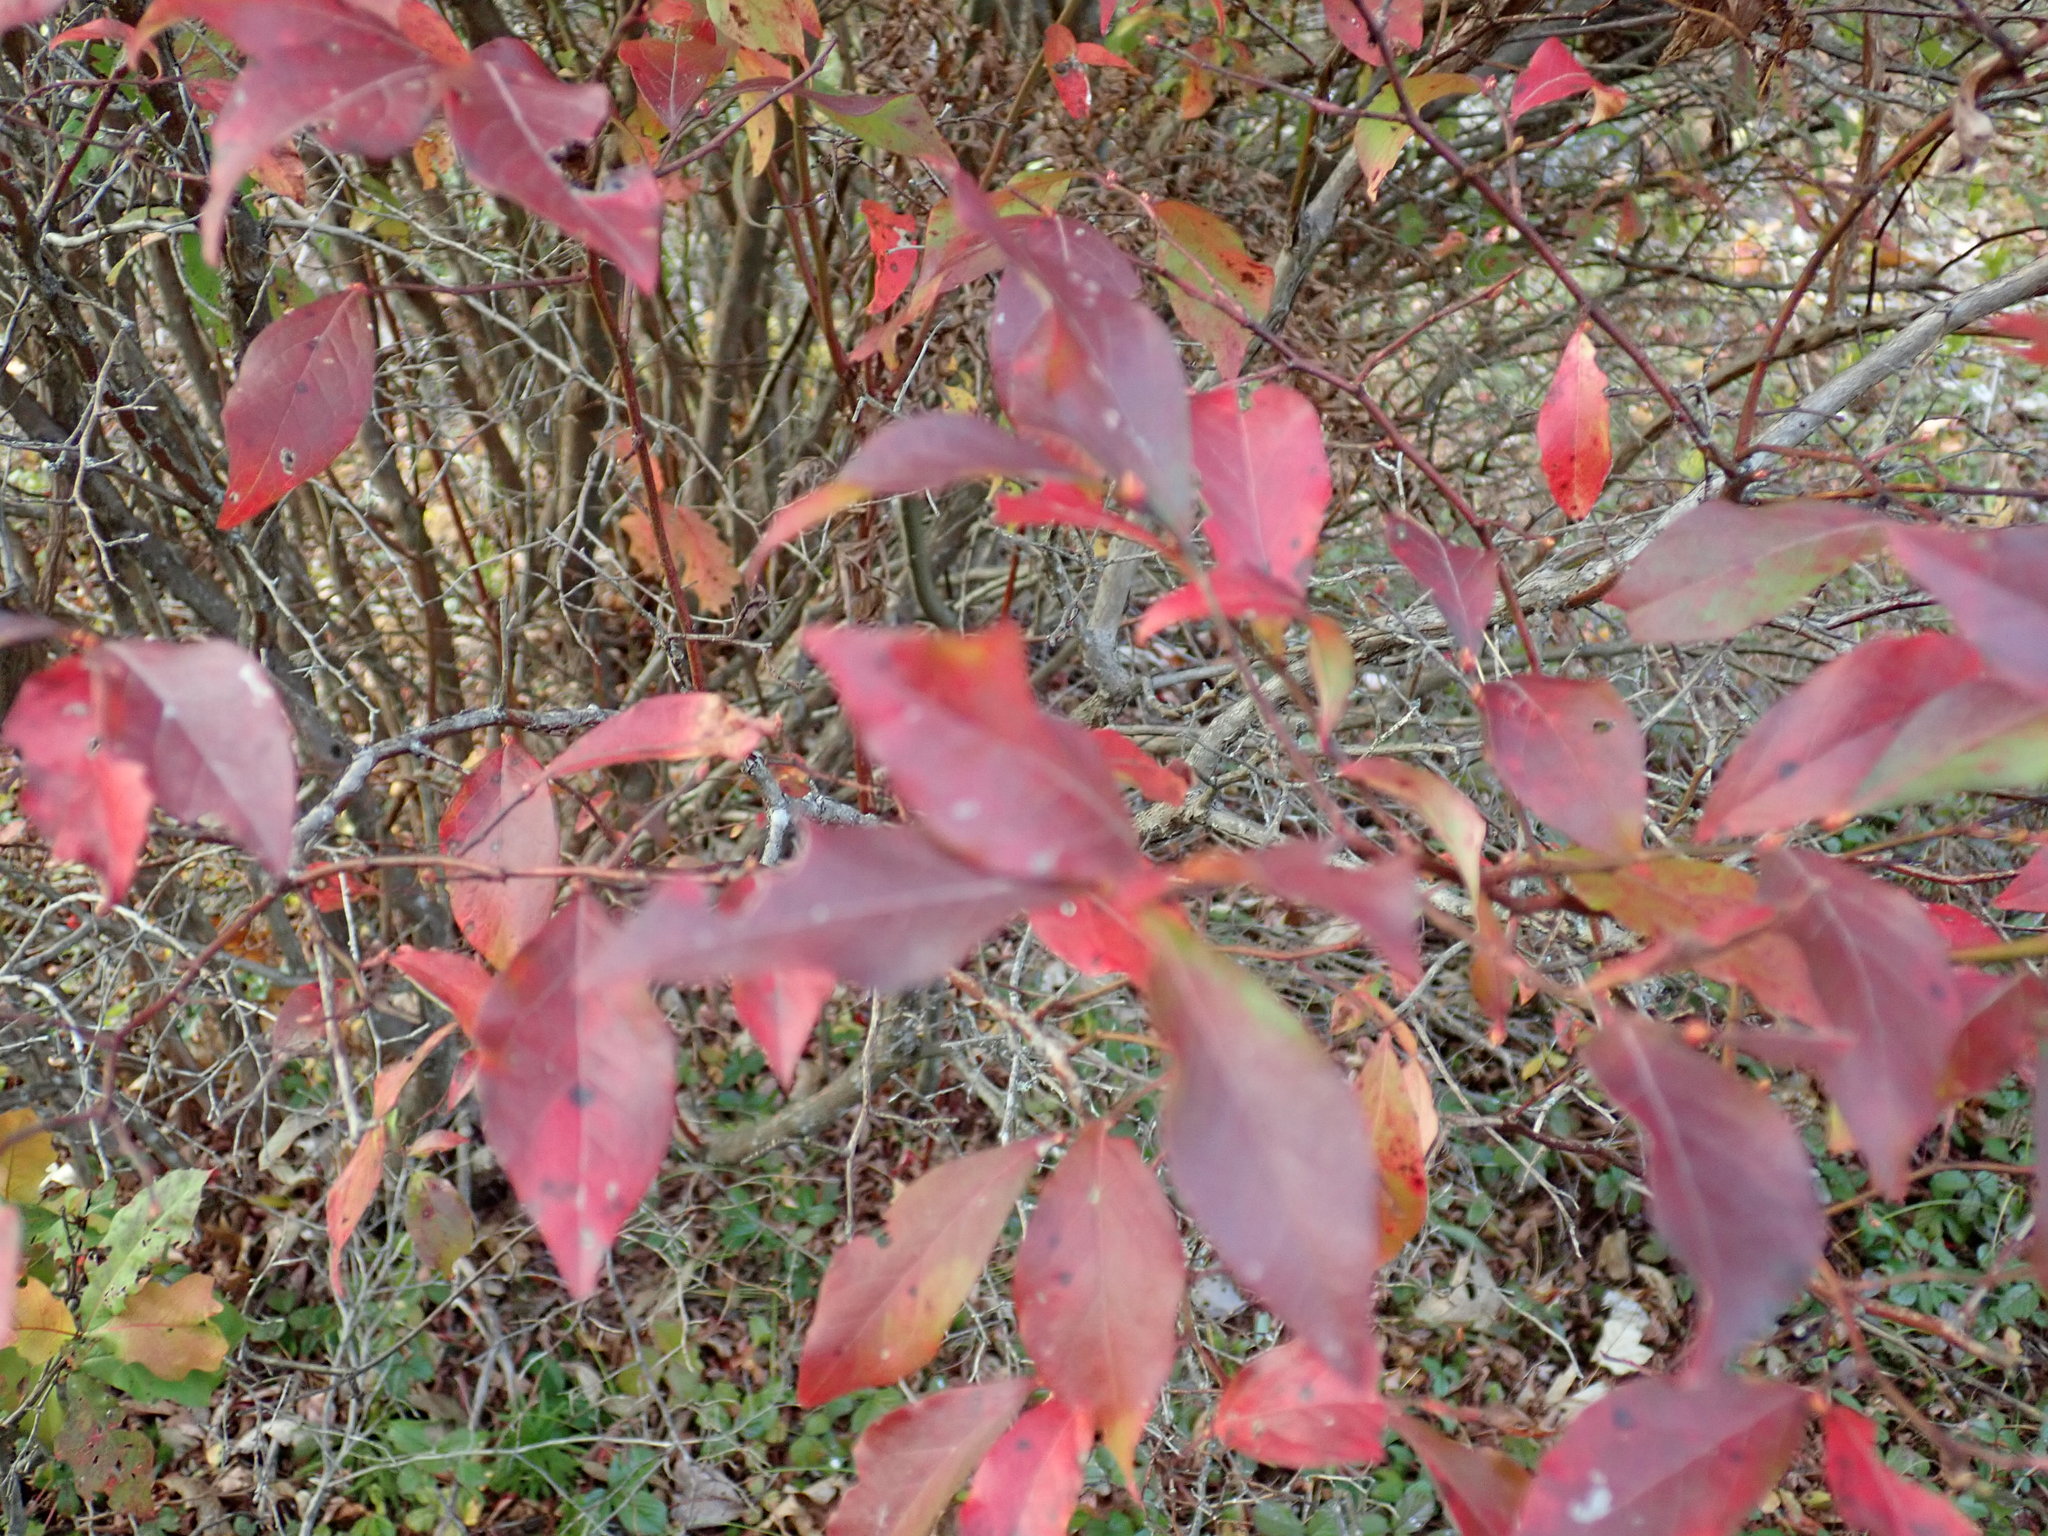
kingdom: Plantae
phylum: Tracheophyta
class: Magnoliopsida
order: Ericales
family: Ericaceae
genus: Vaccinium
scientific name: Vaccinium corymbosum
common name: Blueberry
